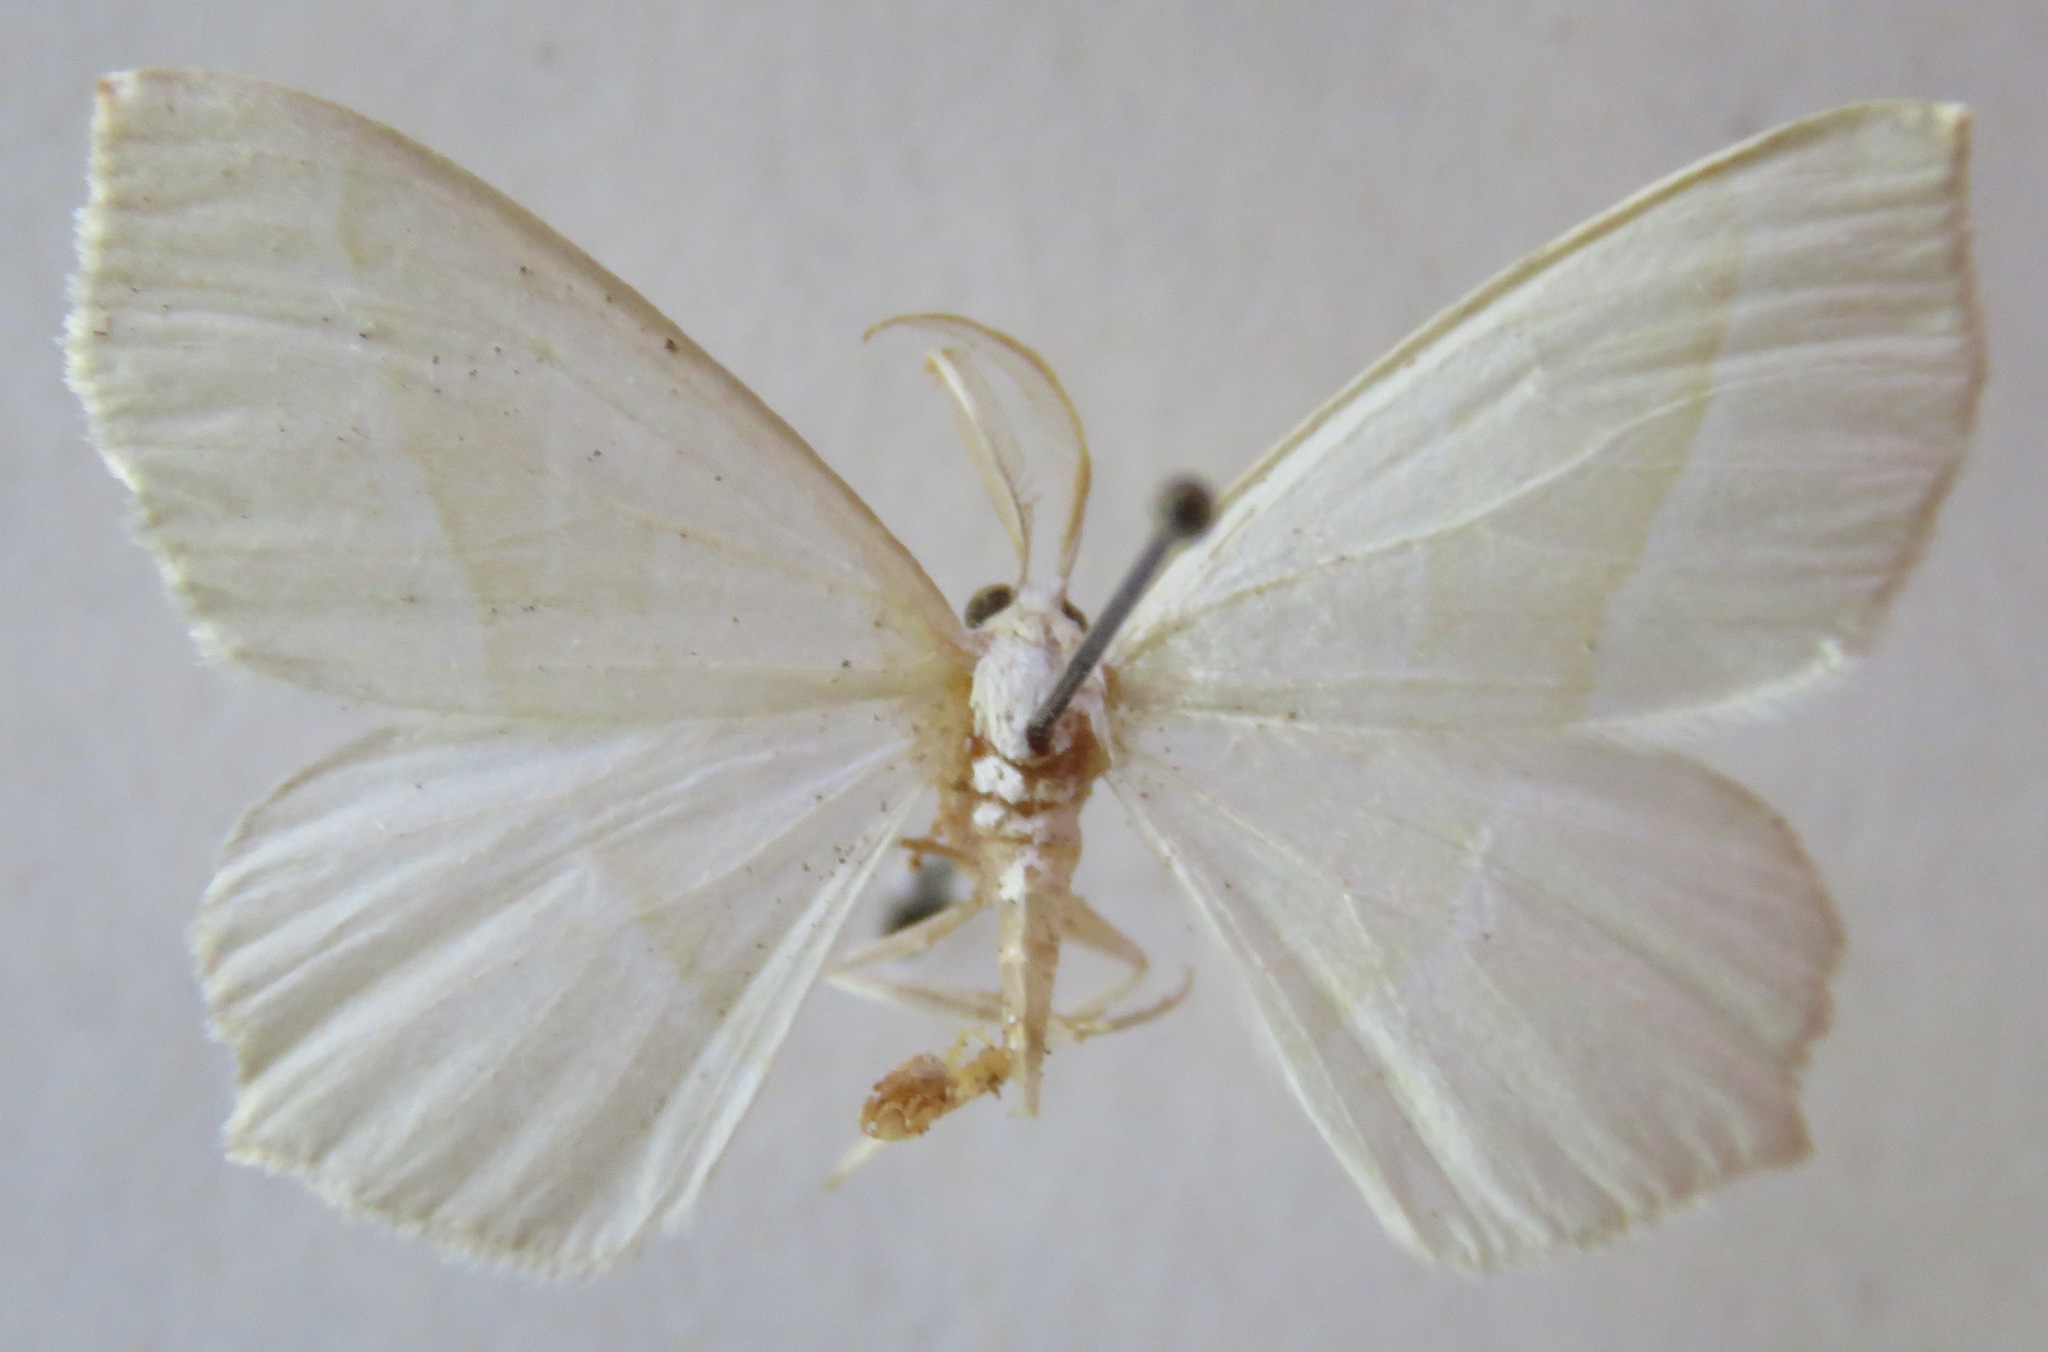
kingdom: Animalia
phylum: Arthropoda
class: Insecta
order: Lepidoptera
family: Geometridae
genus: Campaea
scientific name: Campaea margaritaria
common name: Light emerald
